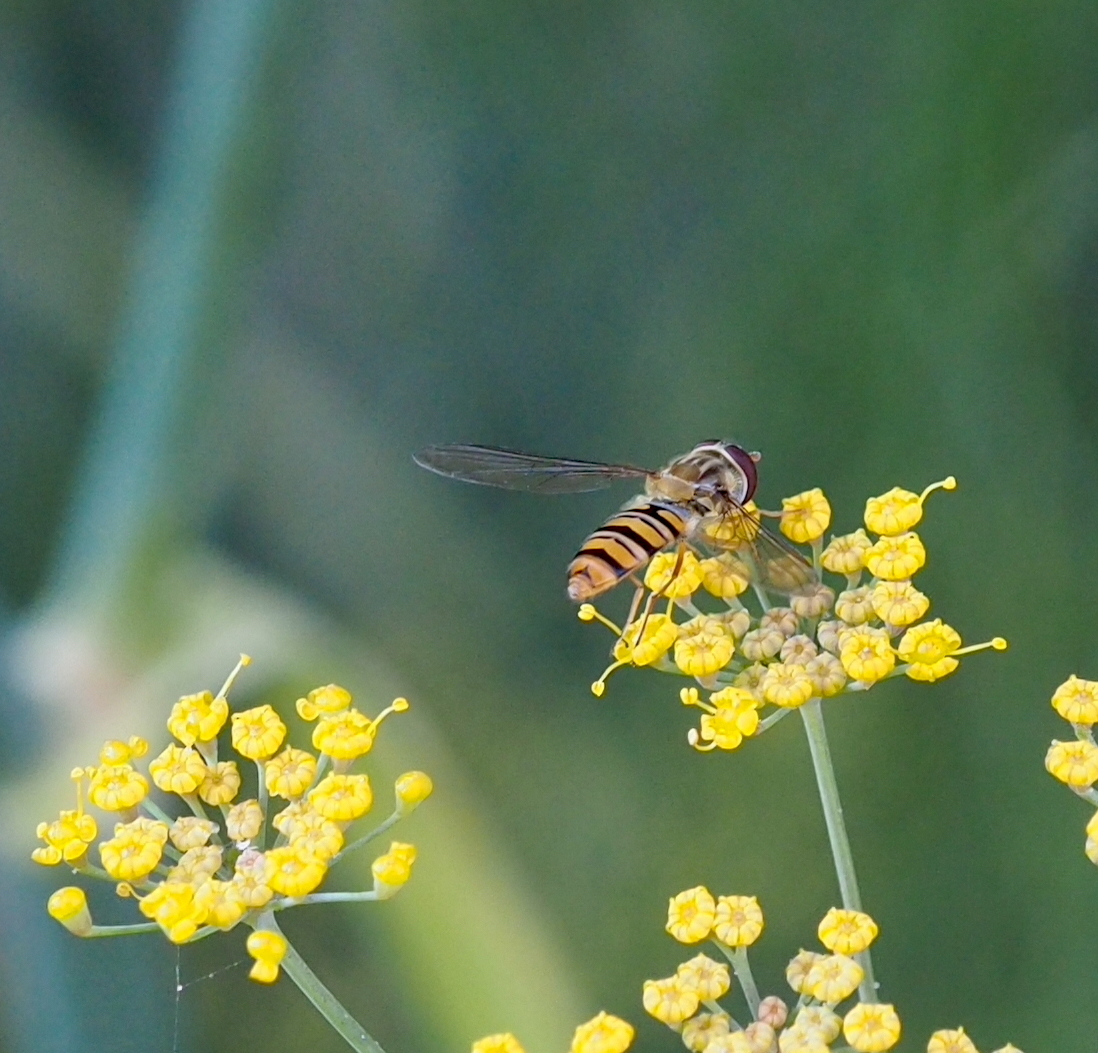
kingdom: Animalia
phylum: Arthropoda
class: Insecta
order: Diptera
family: Syrphidae
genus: Episyrphus
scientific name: Episyrphus balteatus
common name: Marmalade hoverfly
